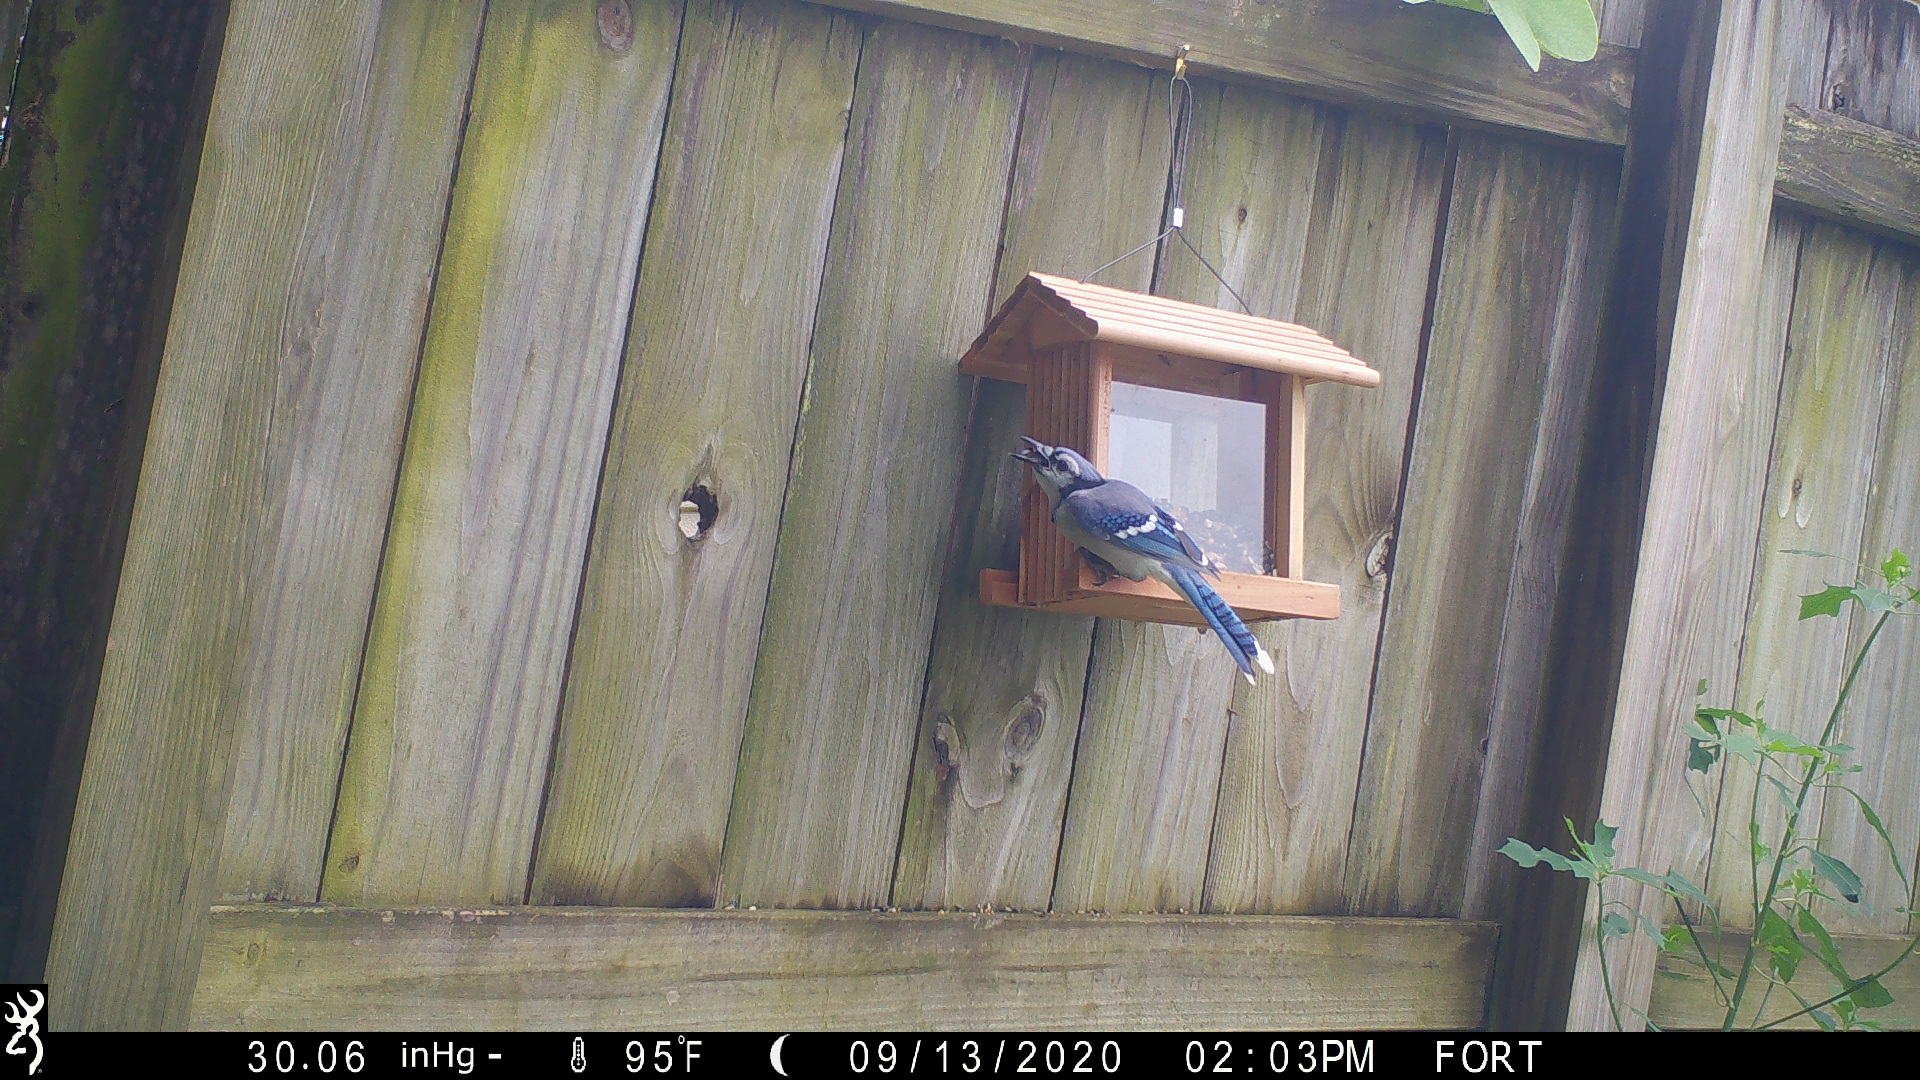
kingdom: Animalia
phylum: Chordata
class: Aves
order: Passeriformes
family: Corvidae
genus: Cyanocitta
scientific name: Cyanocitta cristata
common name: Blue jay
